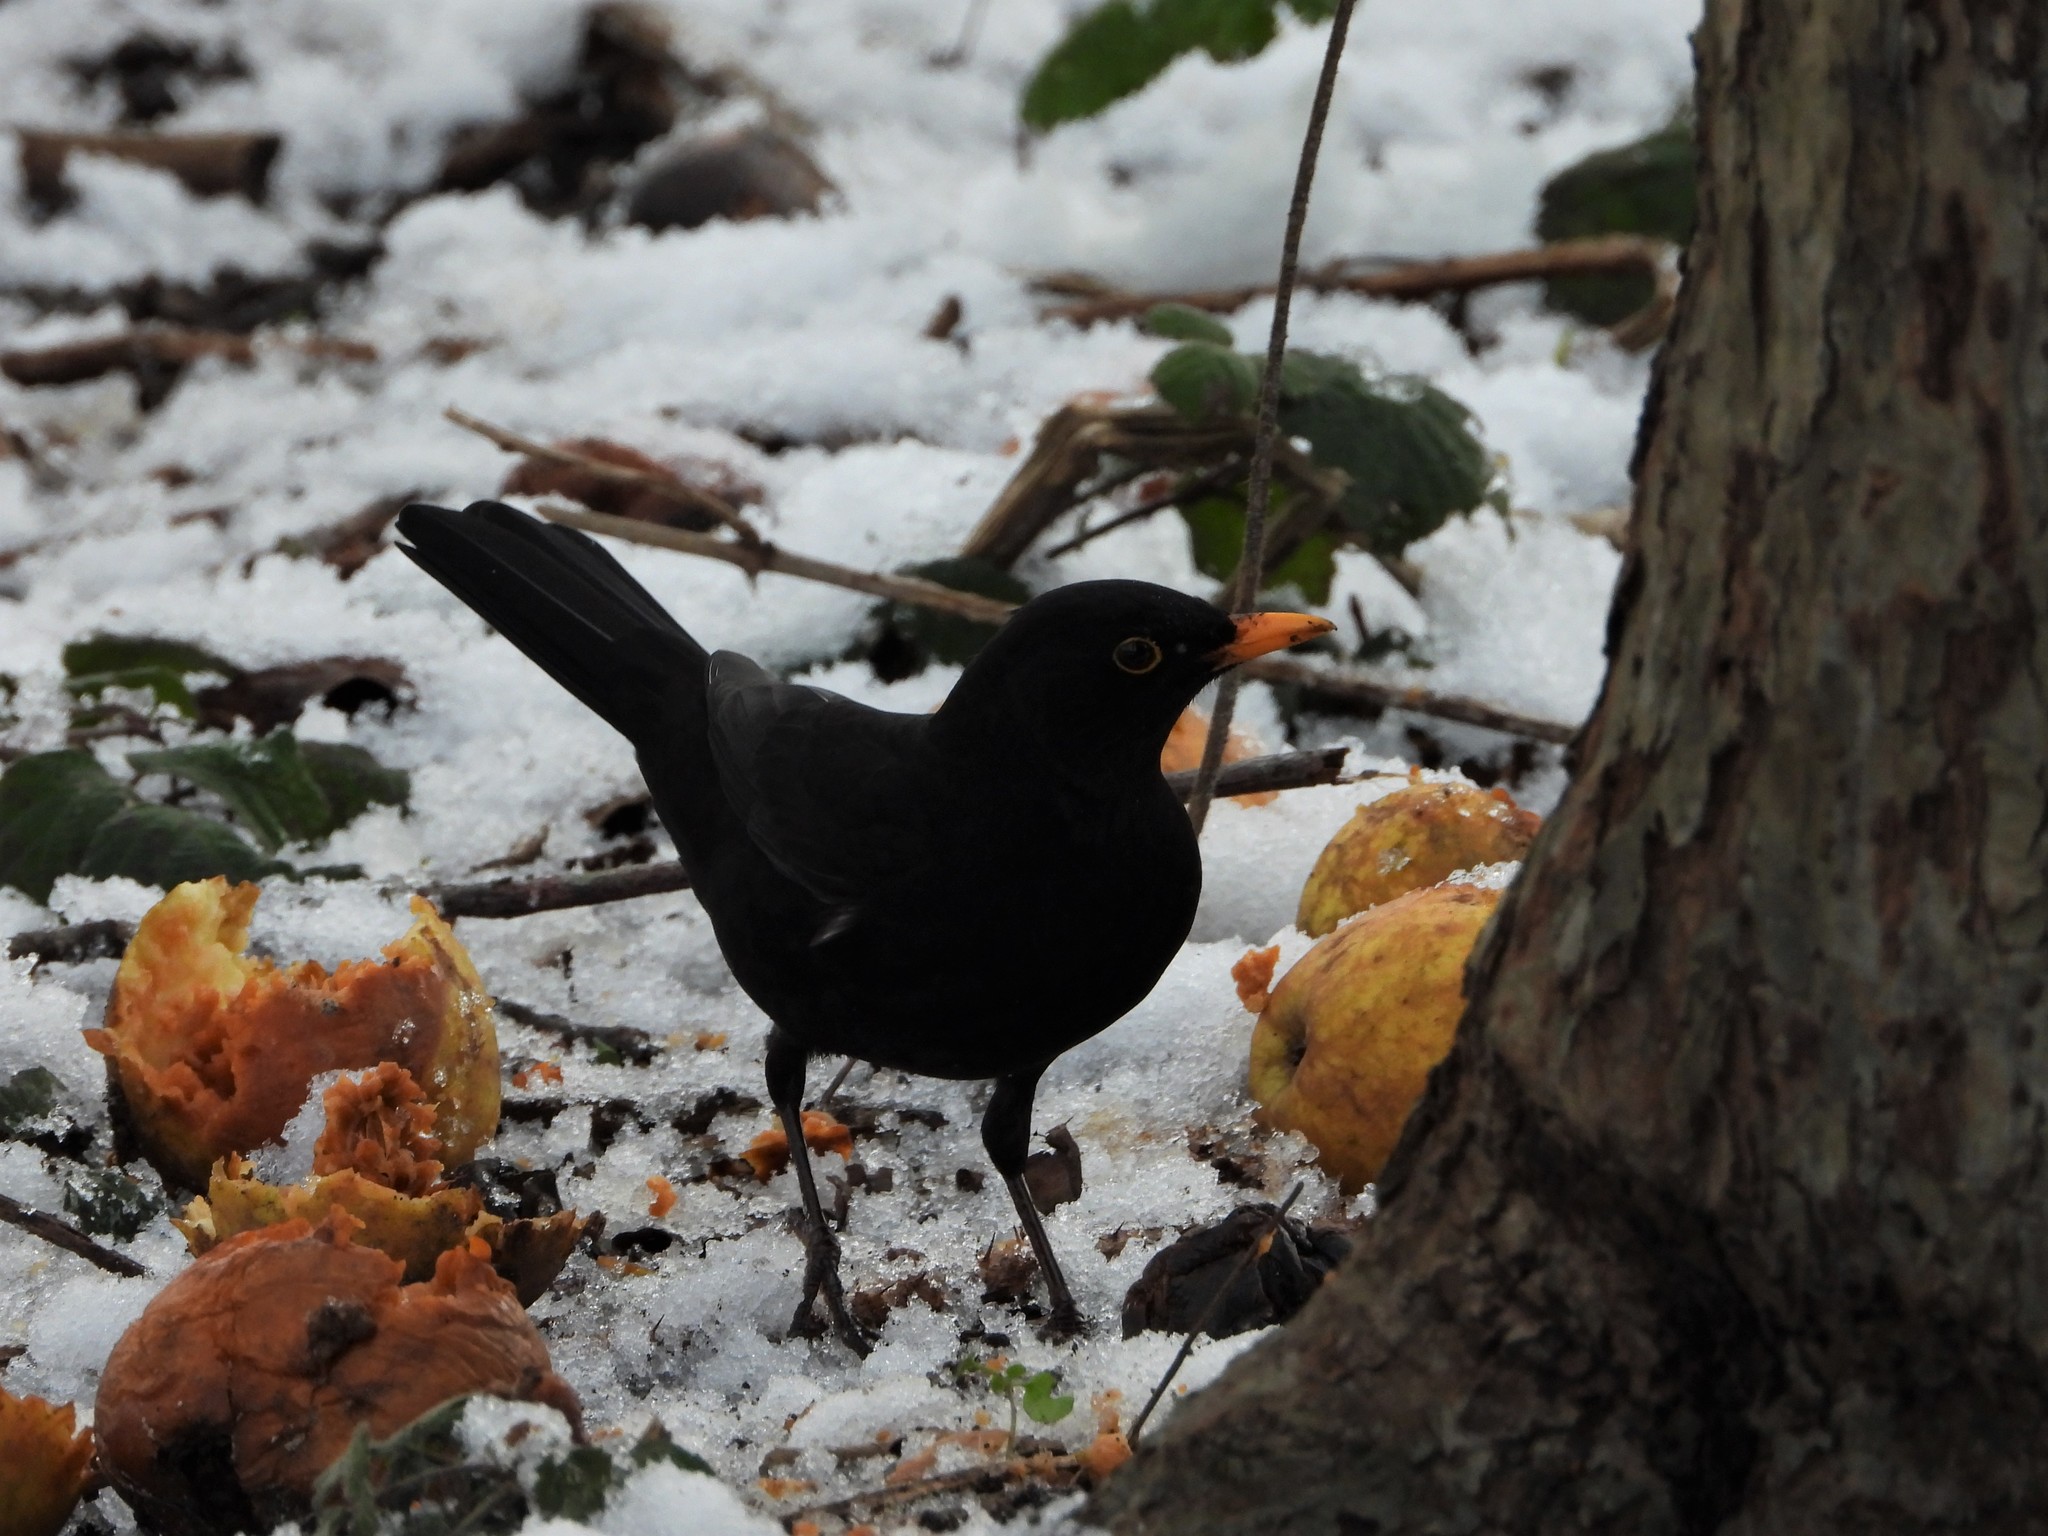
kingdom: Animalia
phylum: Chordata
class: Aves
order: Passeriformes
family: Turdidae
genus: Turdus
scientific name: Turdus merula
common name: Common blackbird
